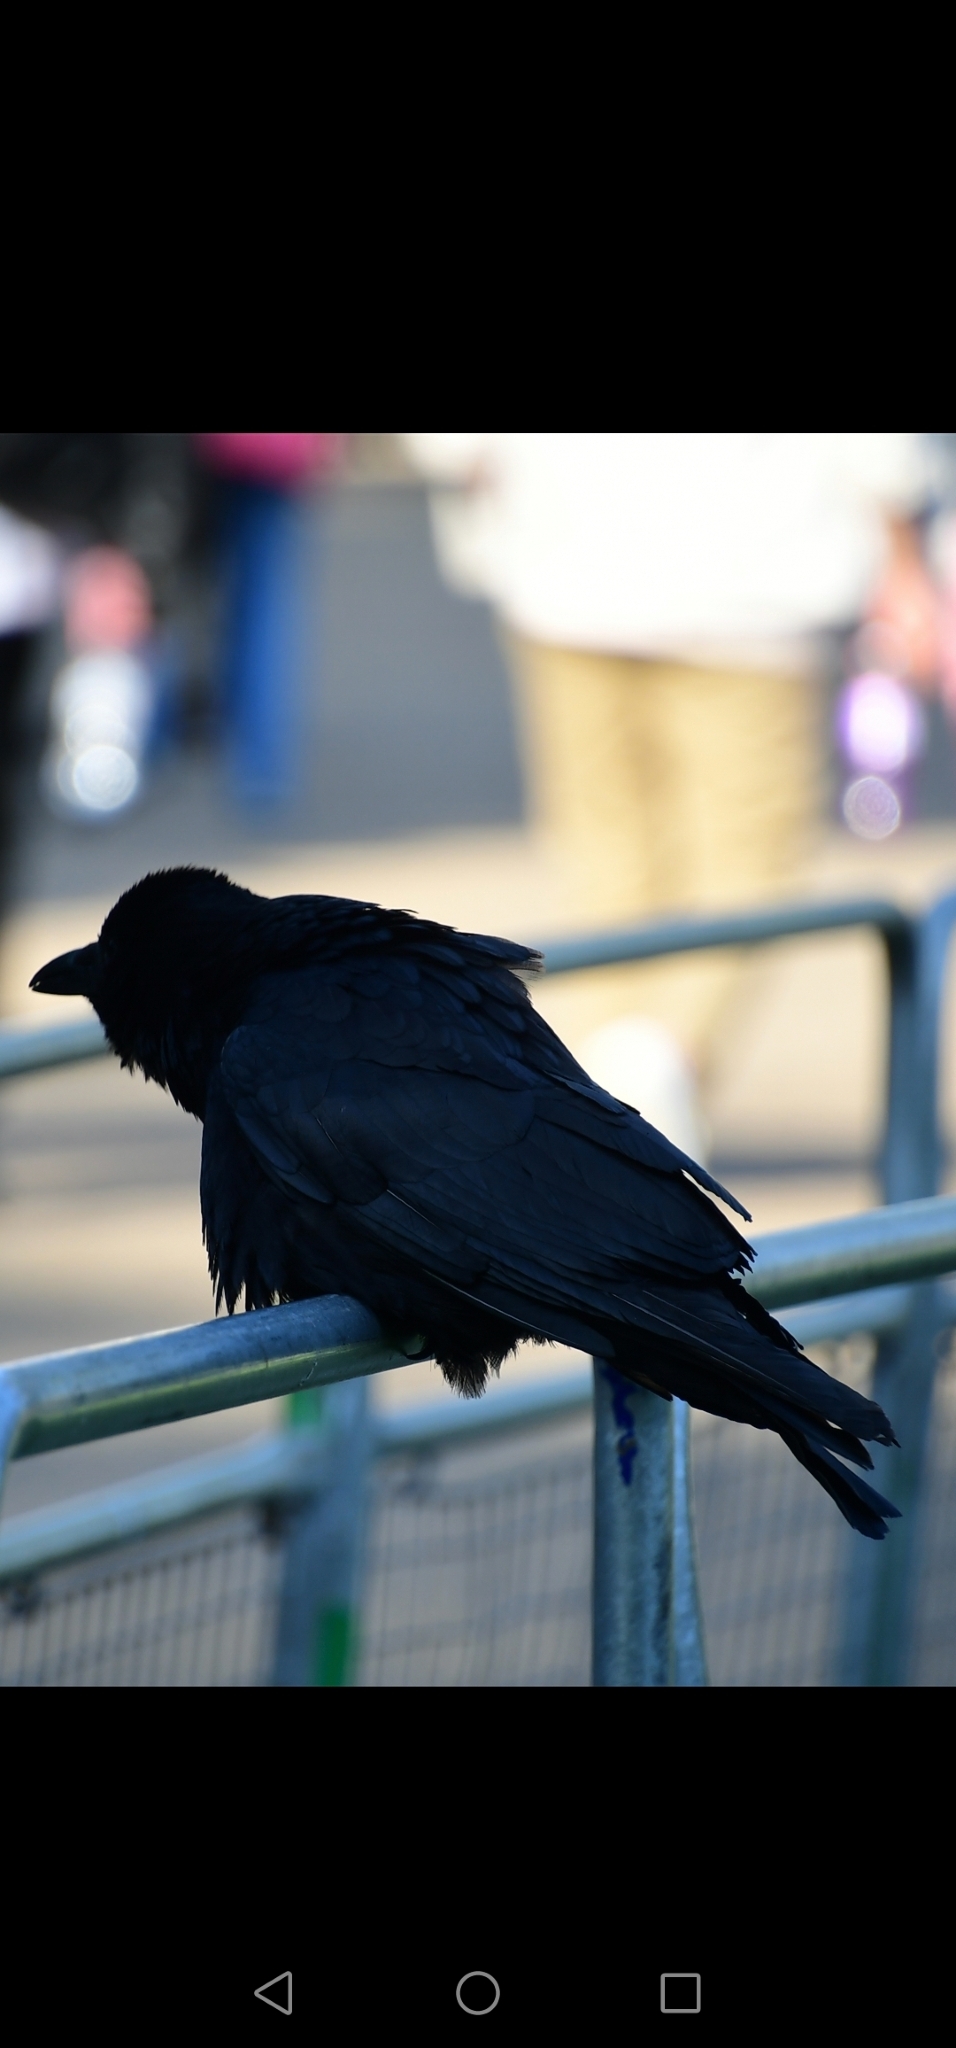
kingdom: Animalia
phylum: Chordata
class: Aves
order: Passeriformes
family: Corvidae
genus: Corvus
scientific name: Corvus corax
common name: Common raven
